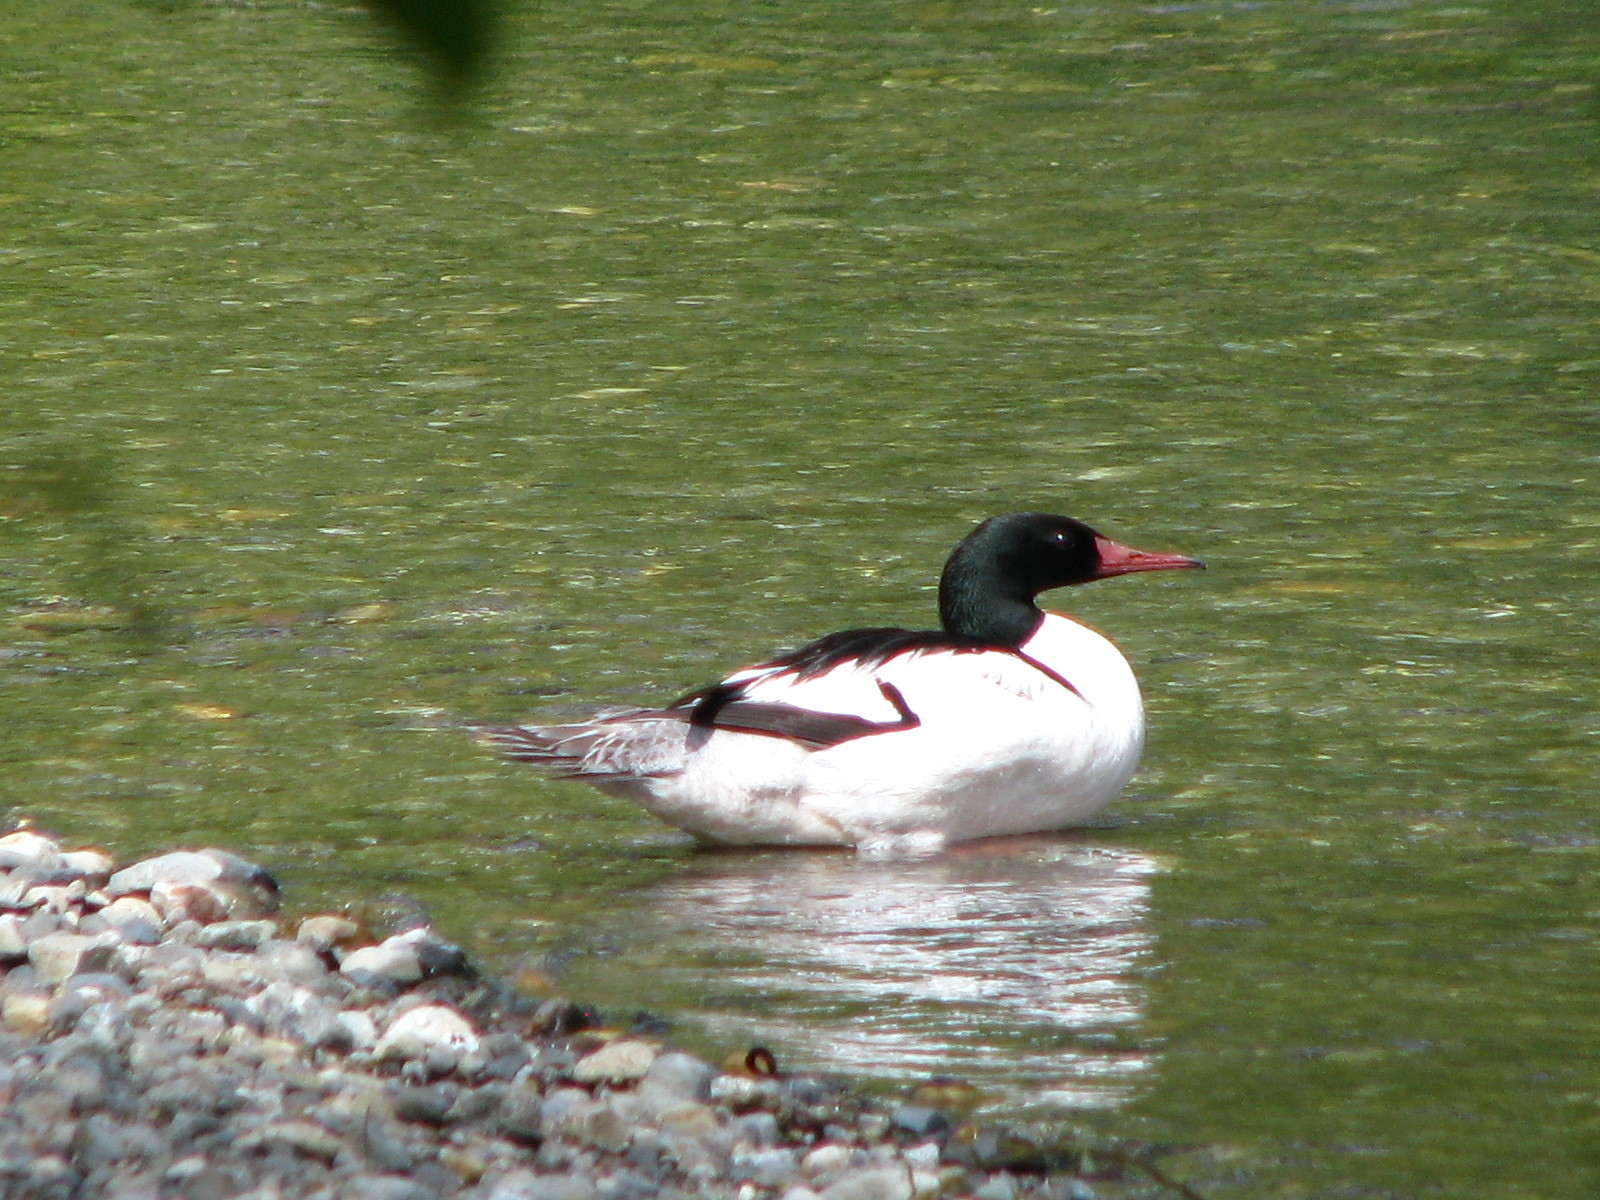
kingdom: Animalia
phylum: Chordata
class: Aves
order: Anseriformes
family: Anatidae
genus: Mergus
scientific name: Mergus merganser
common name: Common merganser
